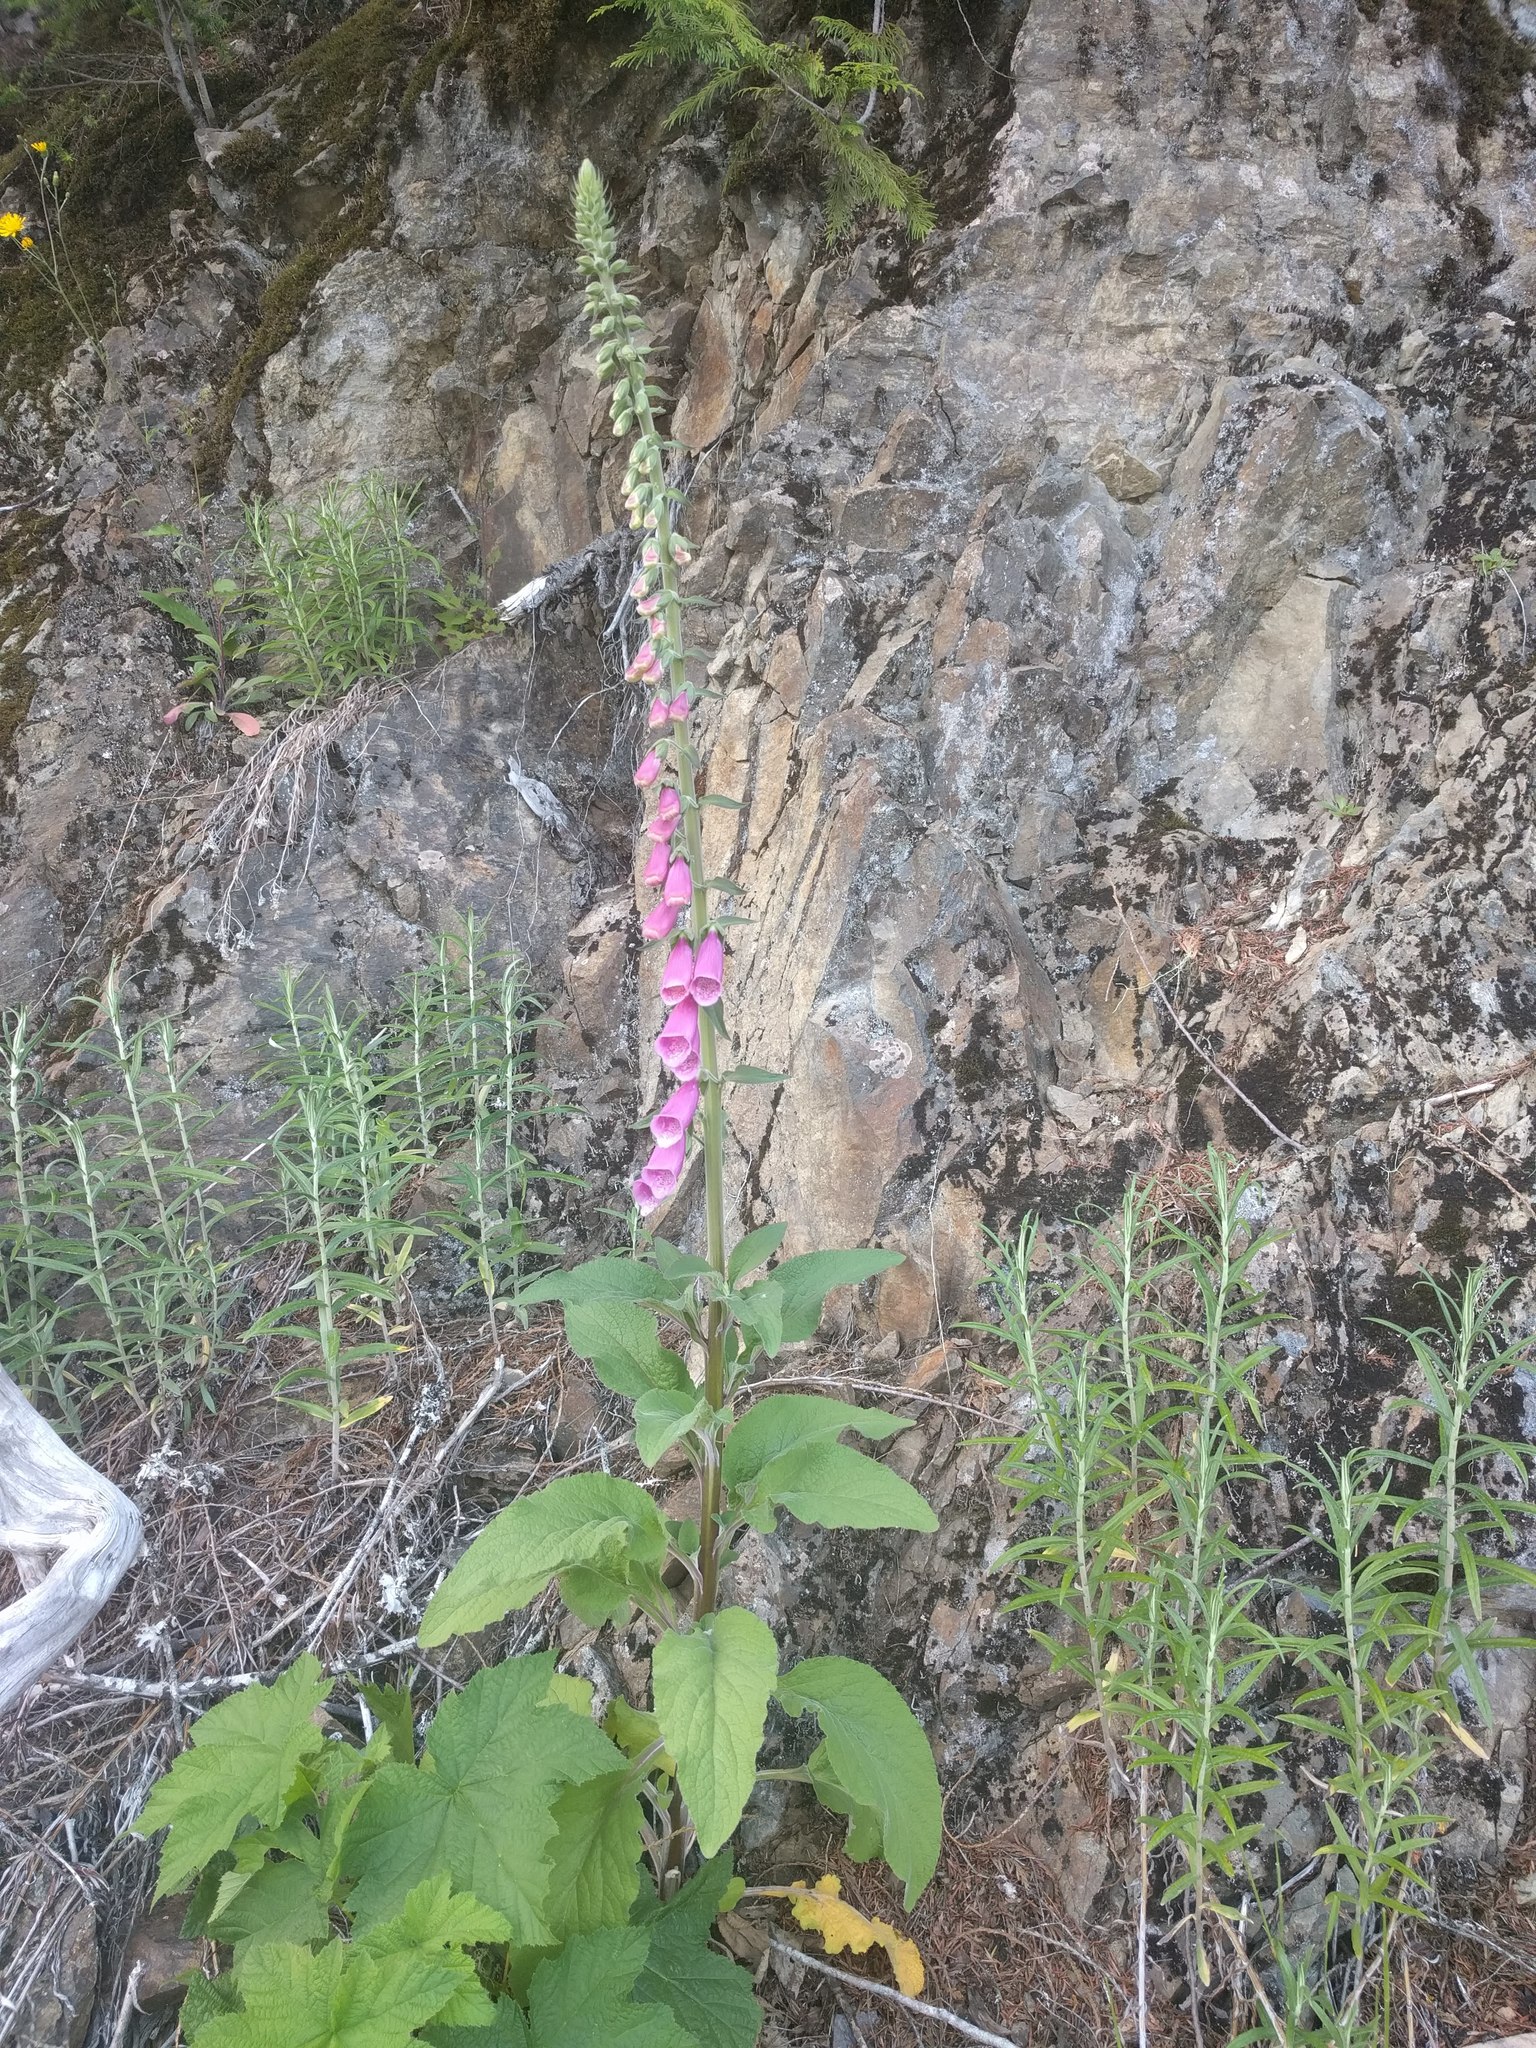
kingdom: Plantae
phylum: Tracheophyta
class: Magnoliopsida
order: Lamiales
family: Plantaginaceae
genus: Digitalis
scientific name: Digitalis purpurea
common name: Foxglove
